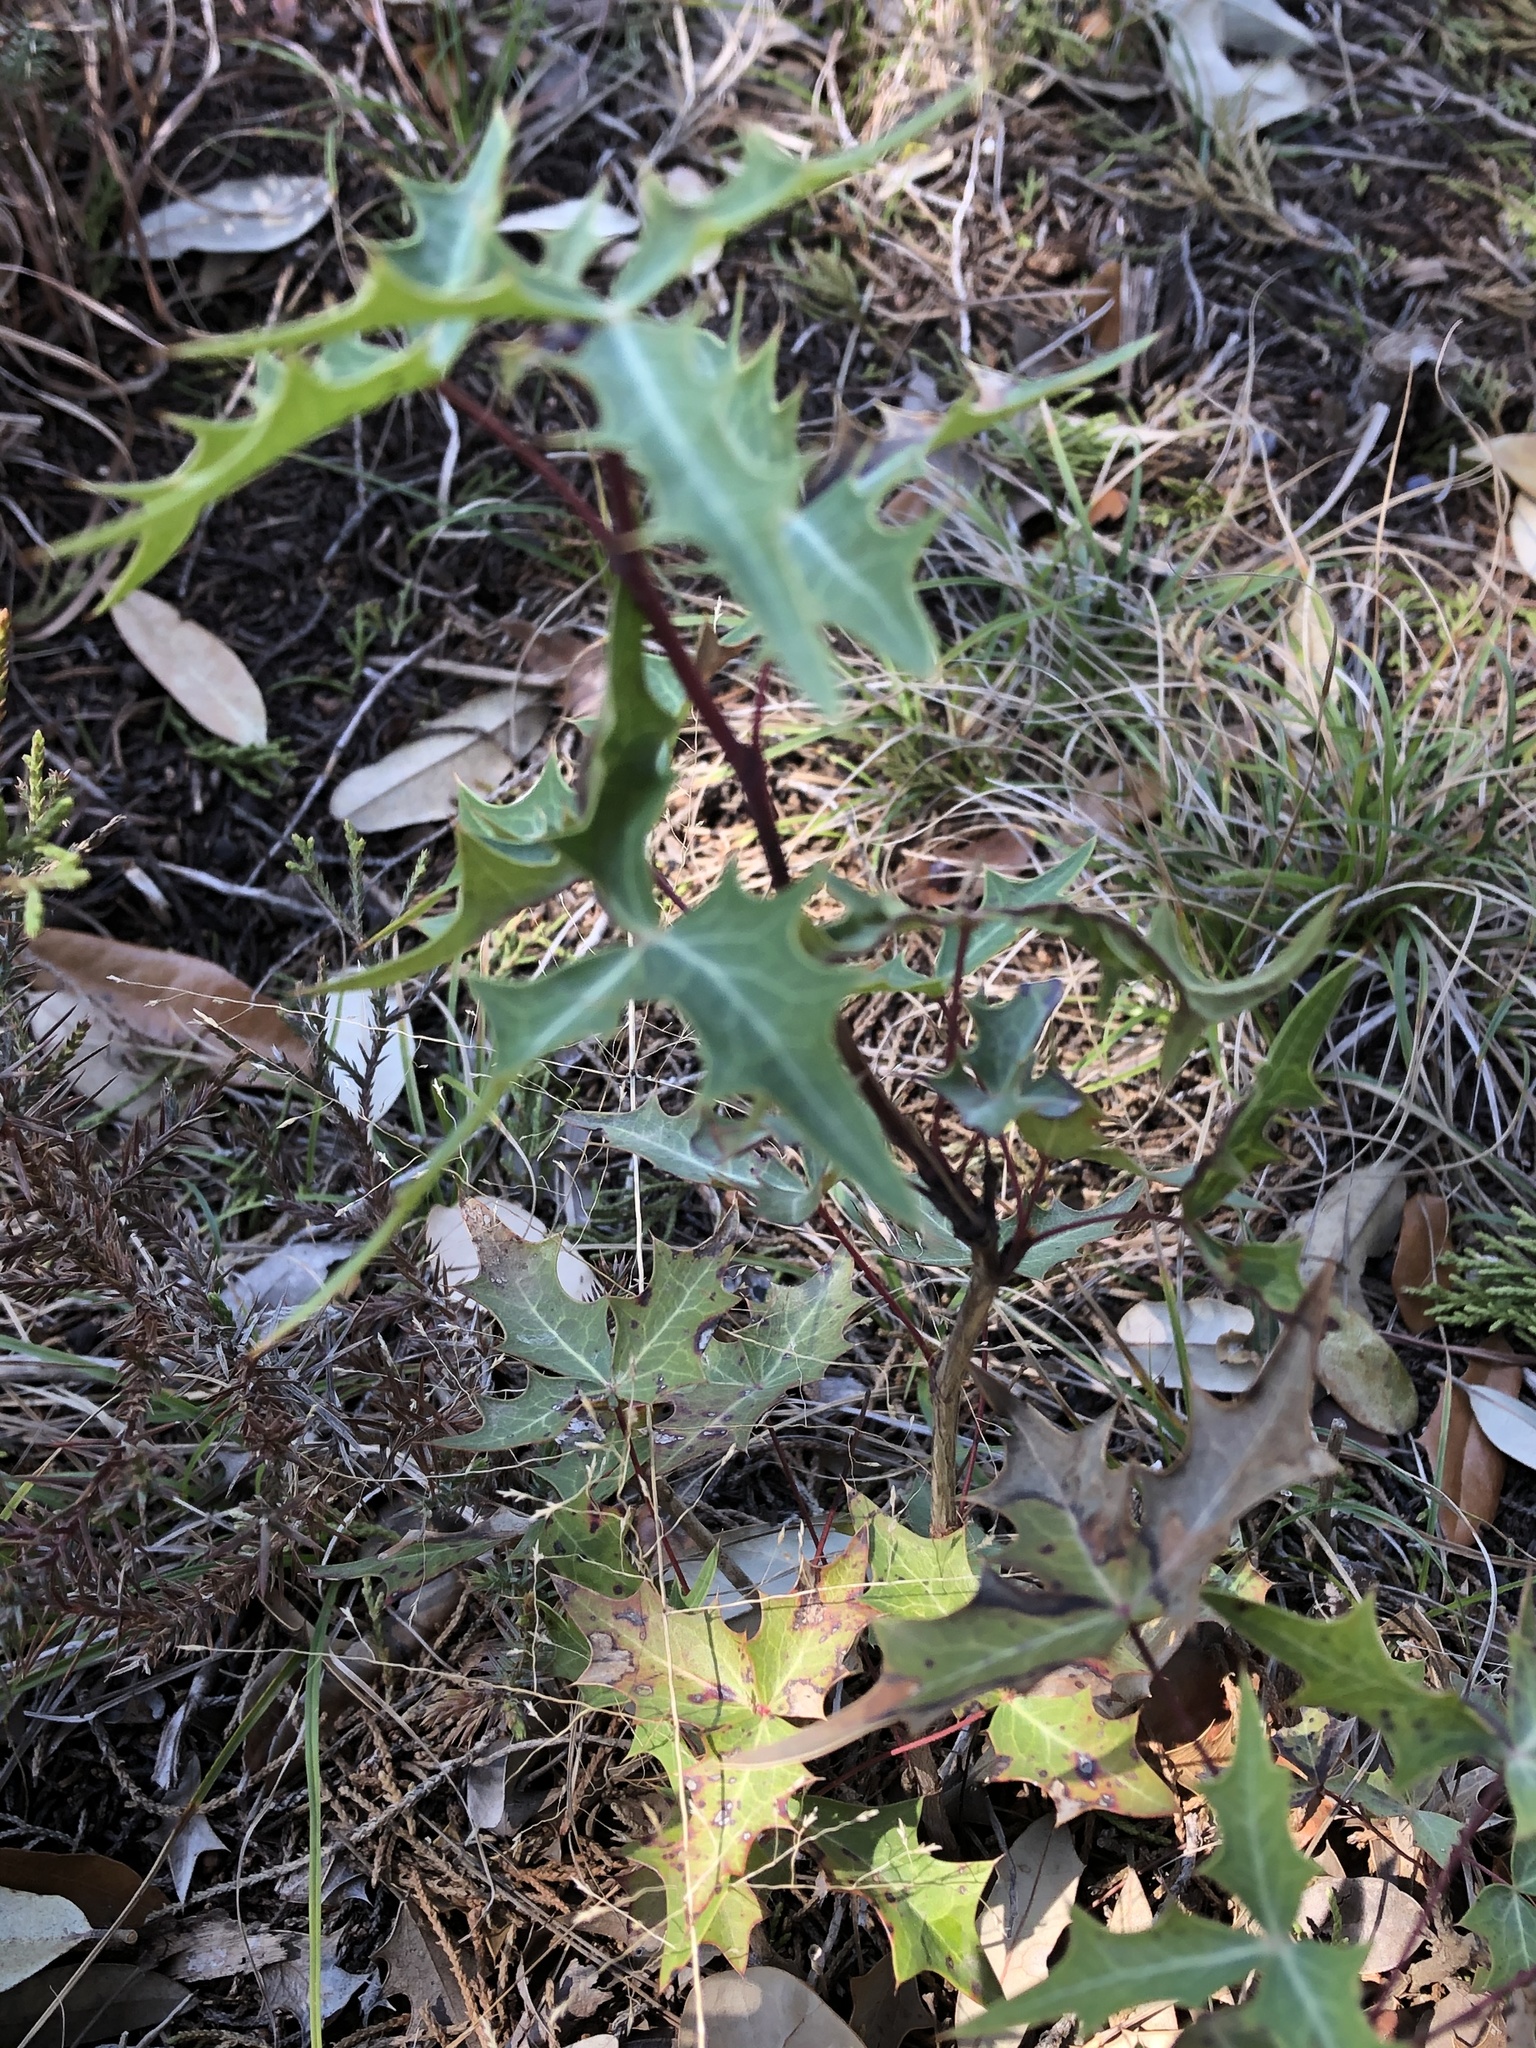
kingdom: Plantae
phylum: Tracheophyta
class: Magnoliopsida
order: Ranunculales
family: Berberidaceae
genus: Alloberberis
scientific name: Alloberberis trifoliolata
